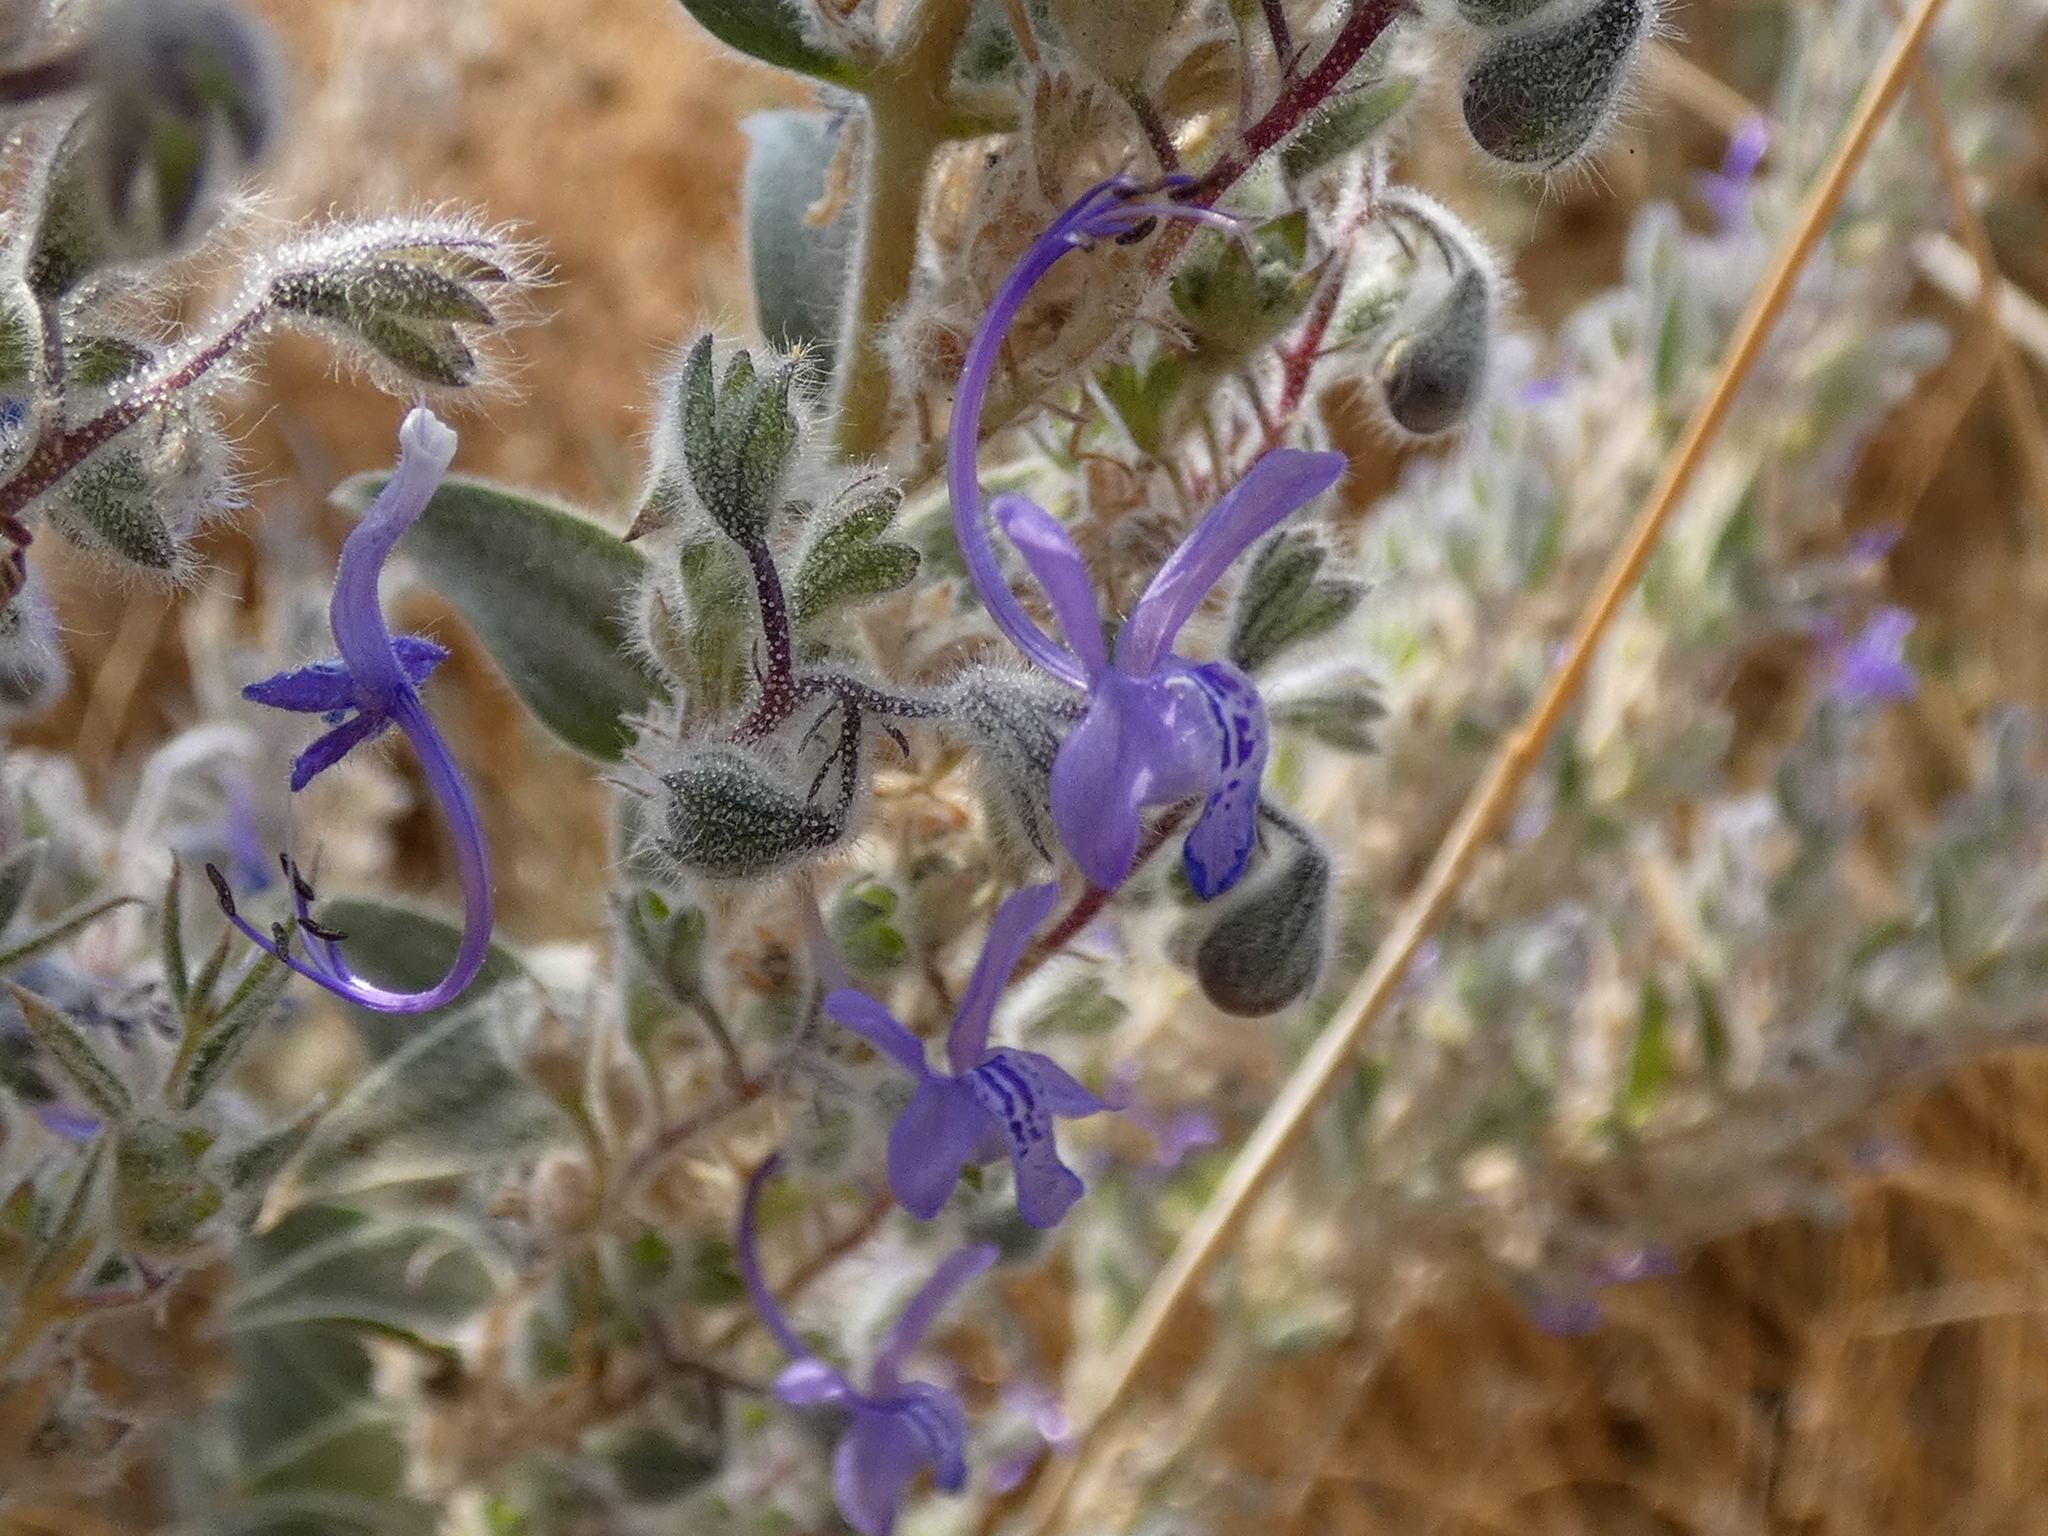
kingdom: Plantae
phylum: Tracheophyta
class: Magnoliopsida
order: Lamiales
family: Lamiaceae
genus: Trichostema
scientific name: Trichostema lanceolatum
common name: Vinegar-weed
